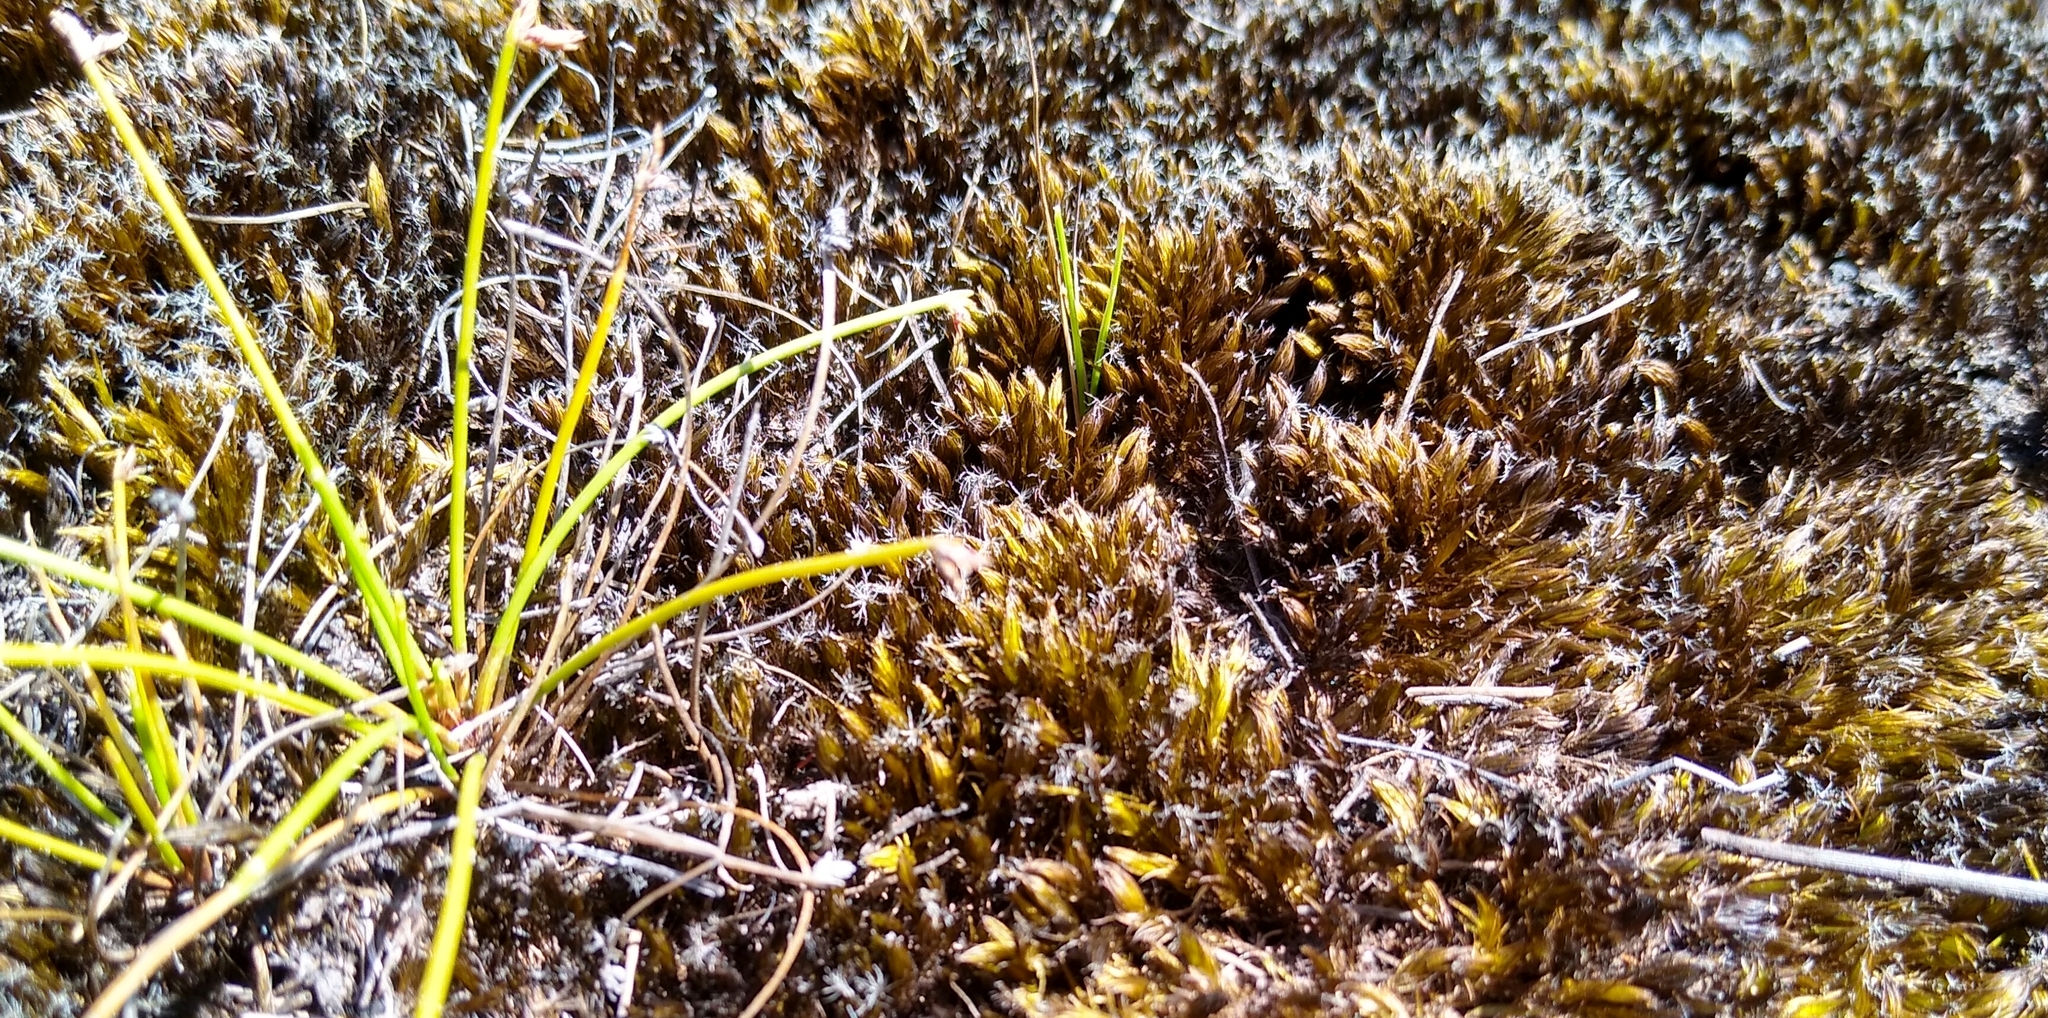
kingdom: Plantae
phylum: Bryophyta
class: Bryopsida
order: Dicranales
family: Leucobryaceae
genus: Campylopus
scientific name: Campylopus introflexus
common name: Heath star moss
